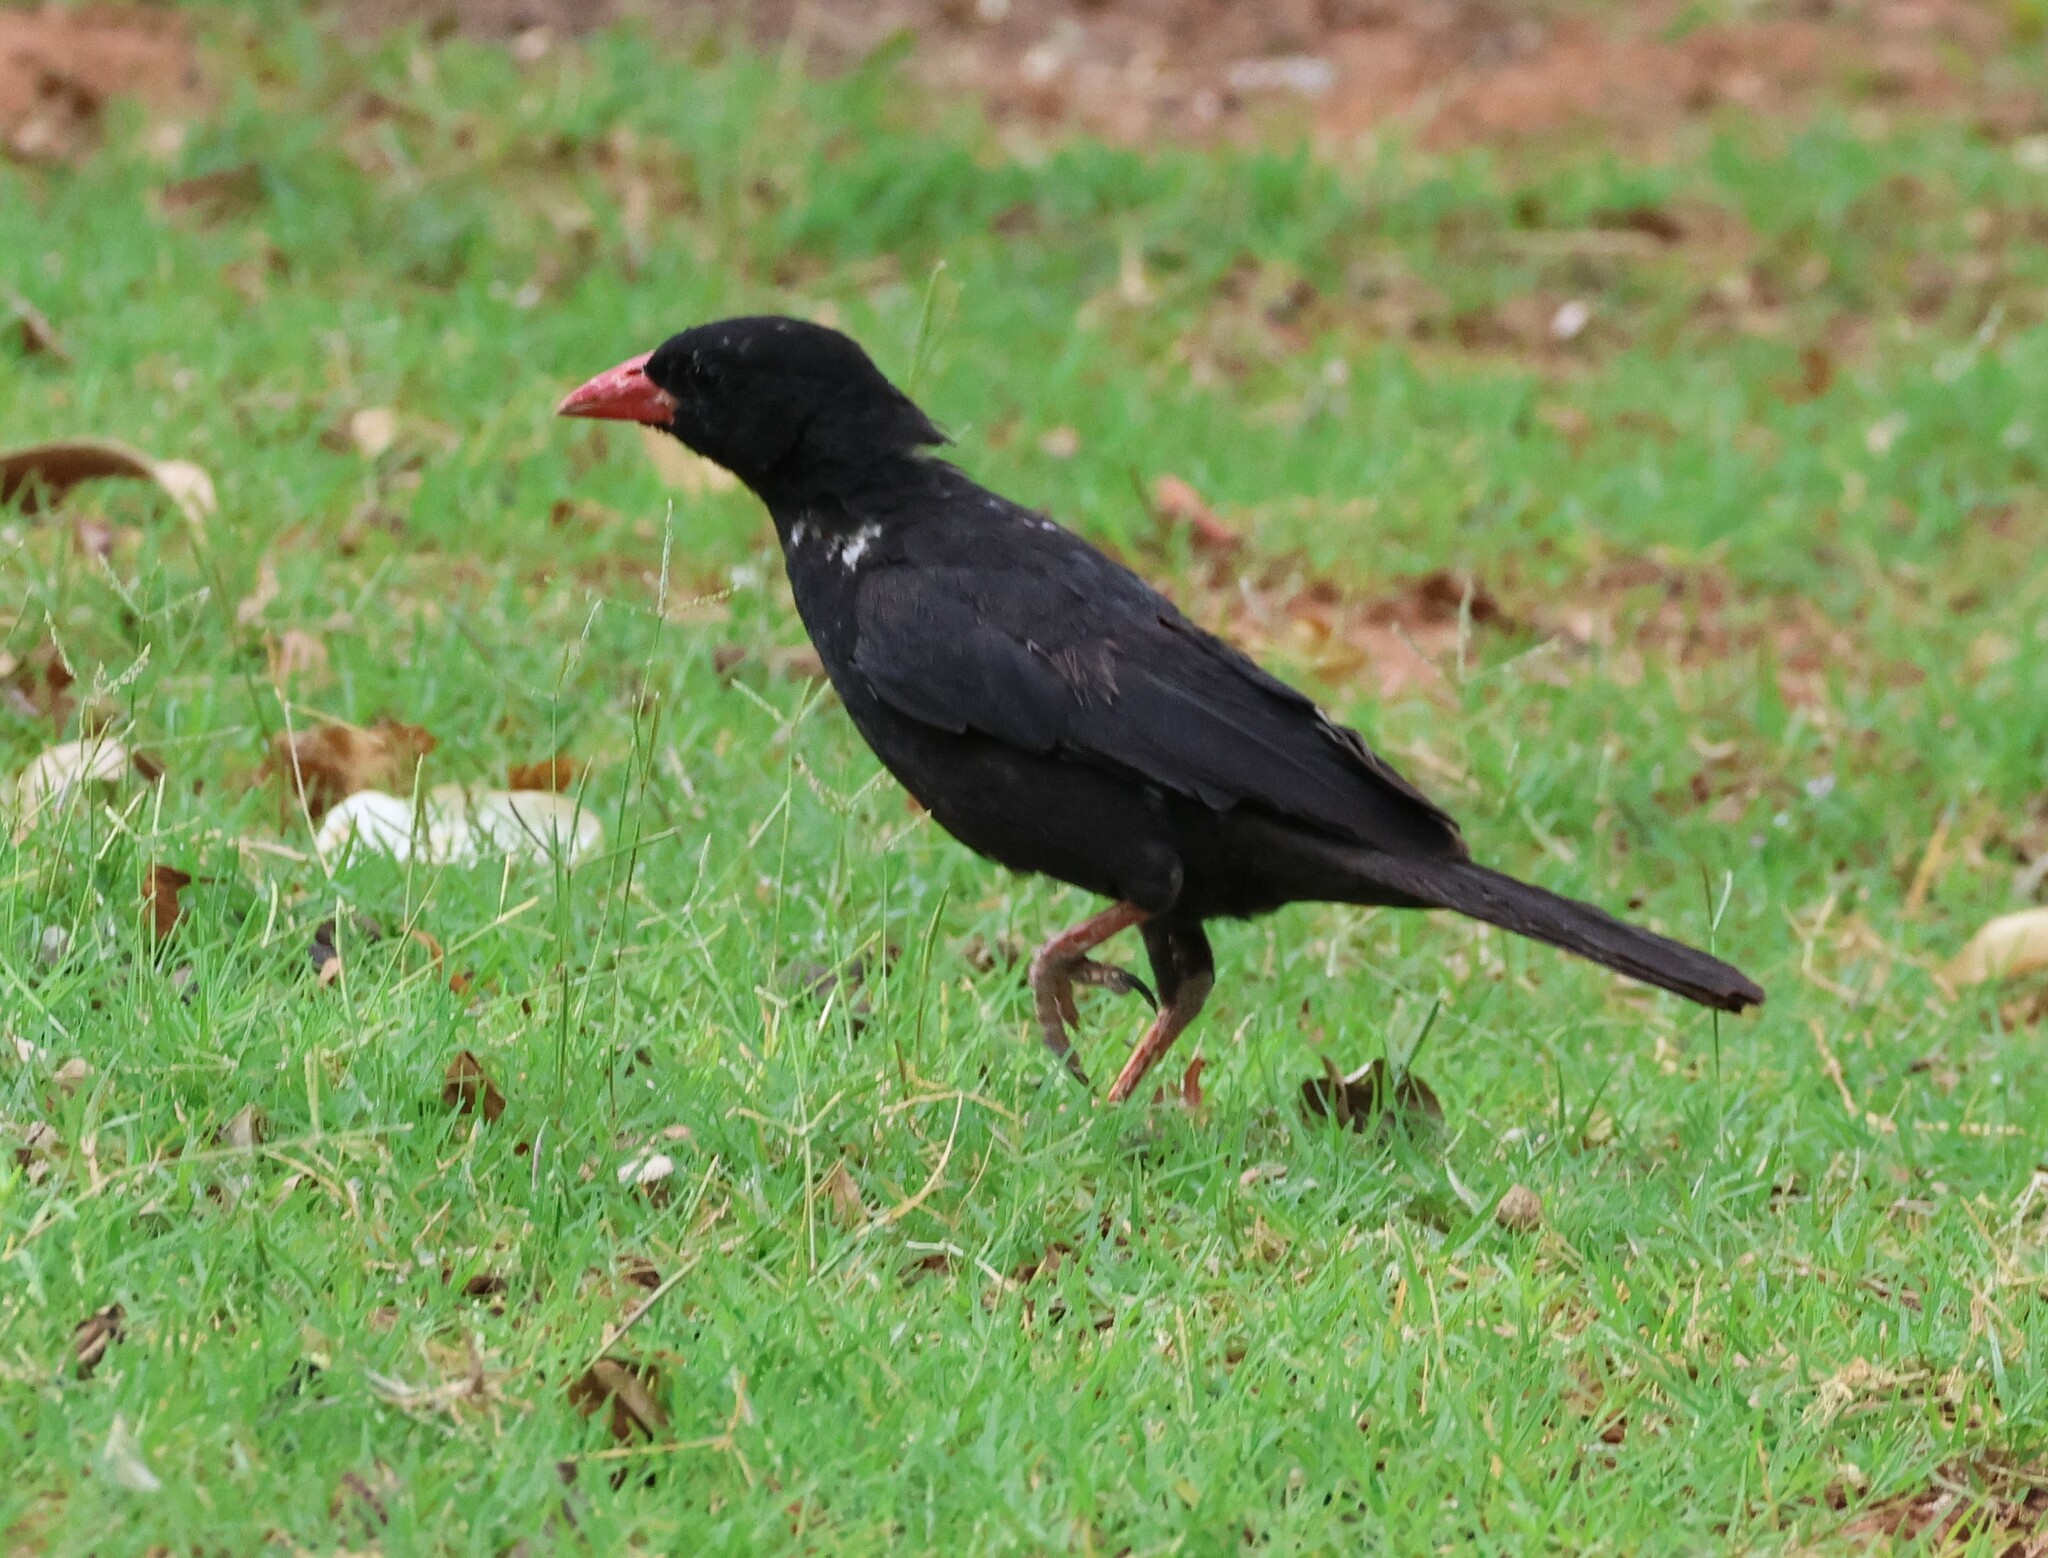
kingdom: Animalia
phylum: Chordata
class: Aves
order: Passeriformes
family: Ploceidae
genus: Bubalornis
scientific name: Bubalornis niger
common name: Red-billed buffalo weaver
